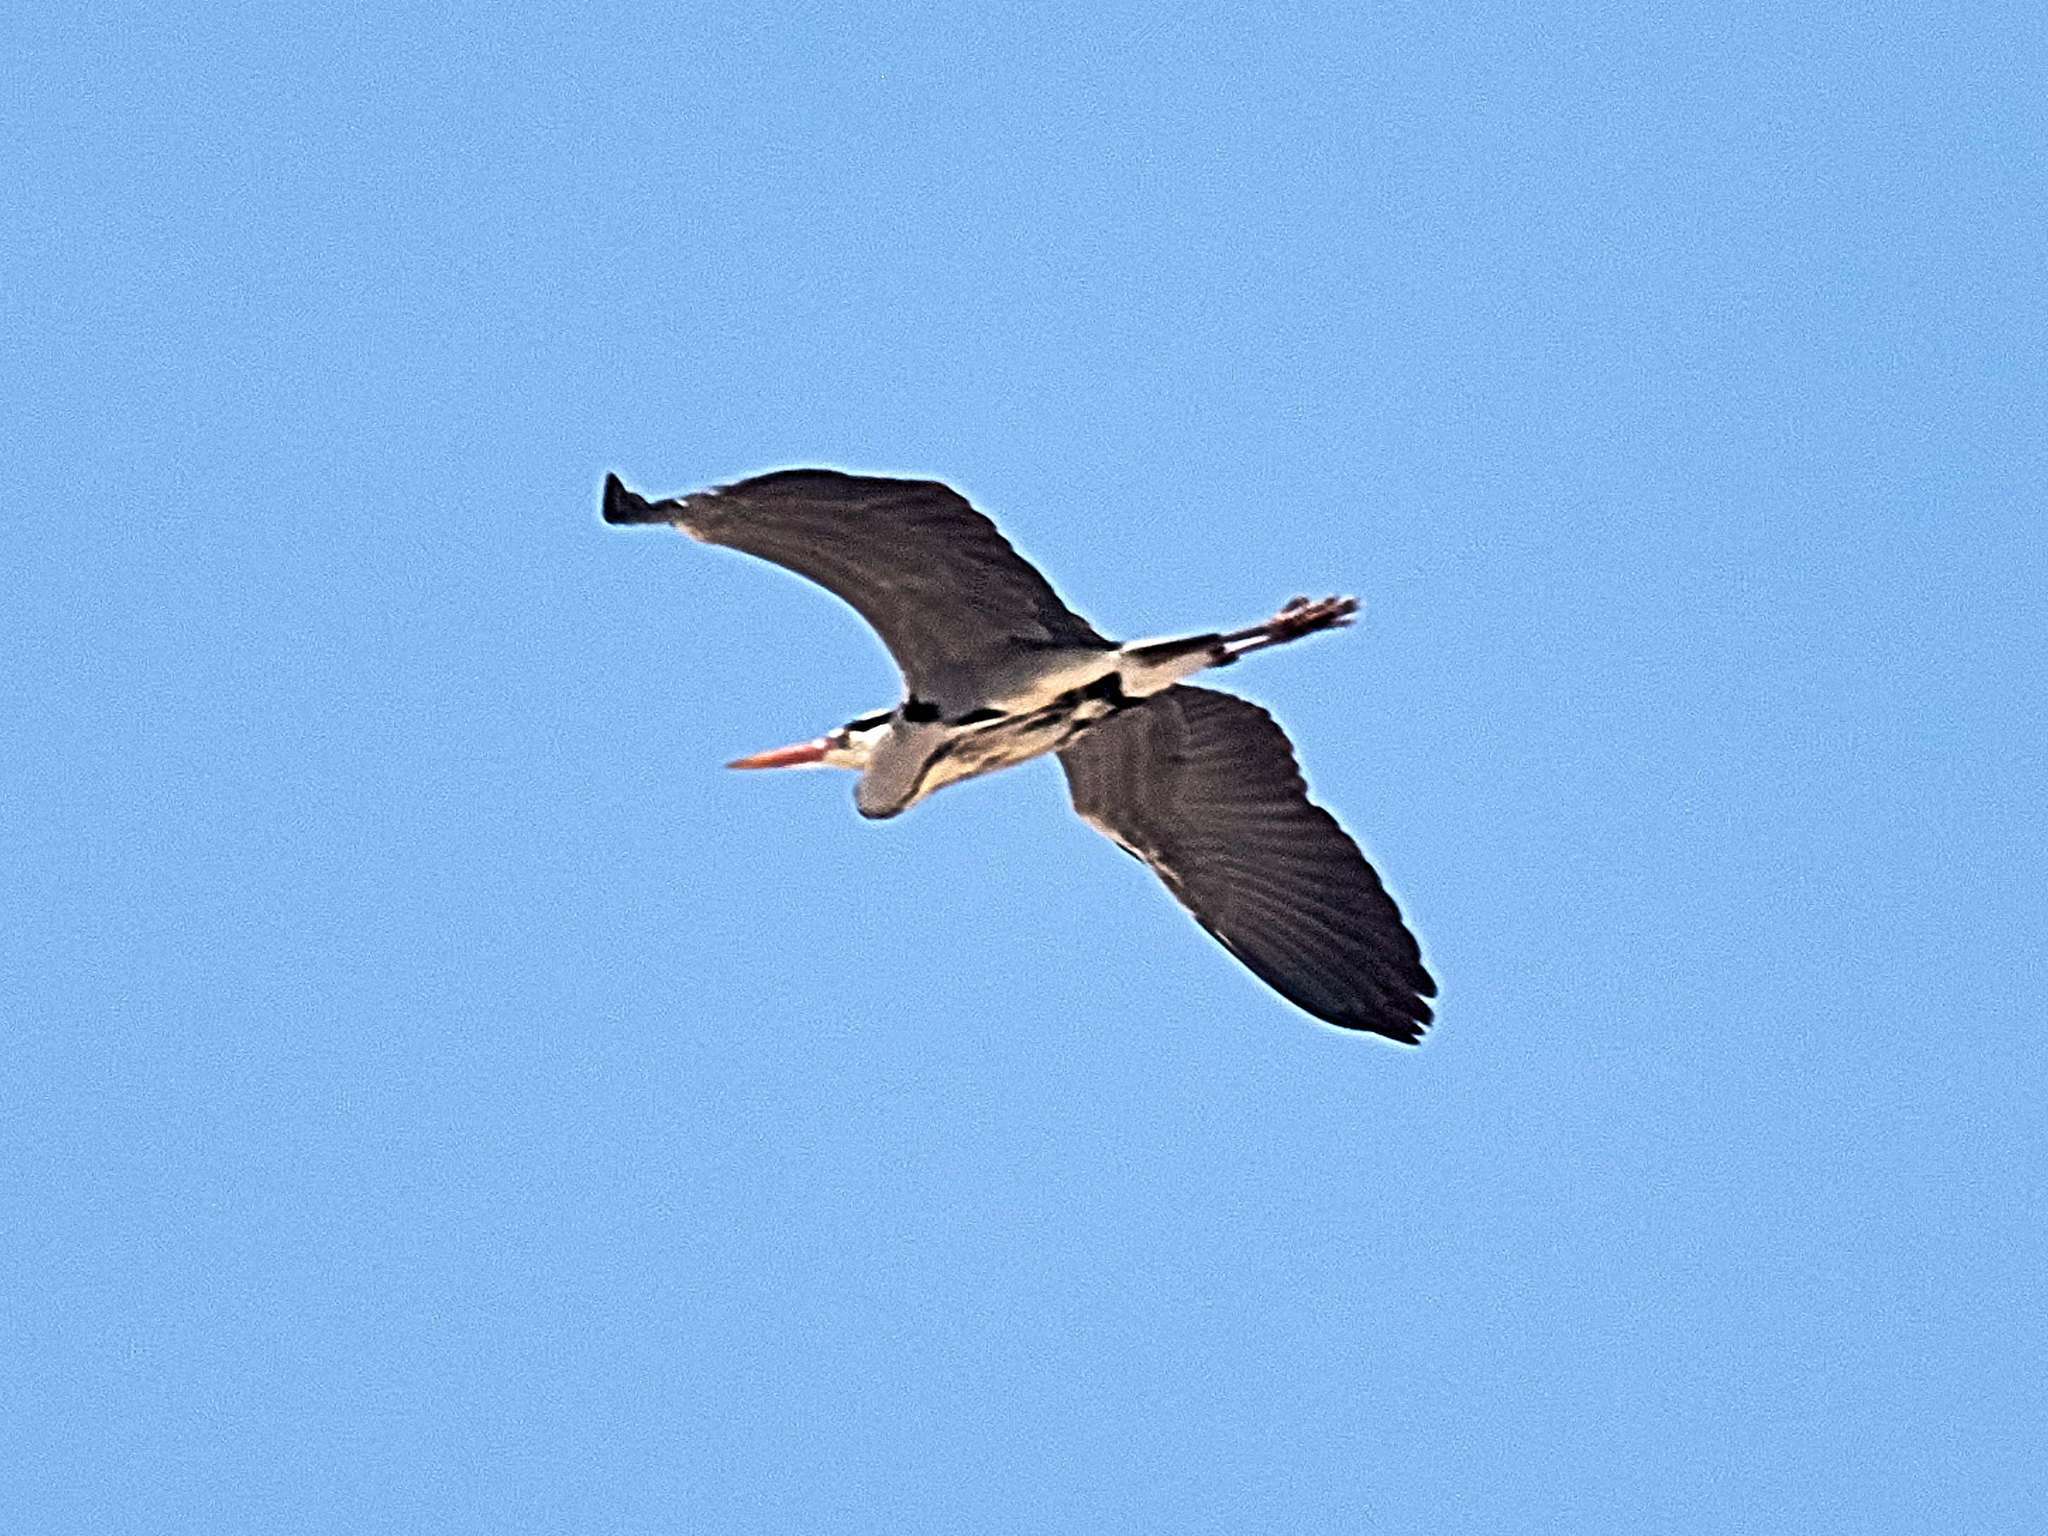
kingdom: Animalia
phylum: Chordata
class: Aves
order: Pelecaniformes
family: Ardeidae
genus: Ardea
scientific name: Ardea cinerea
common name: Grey heron
